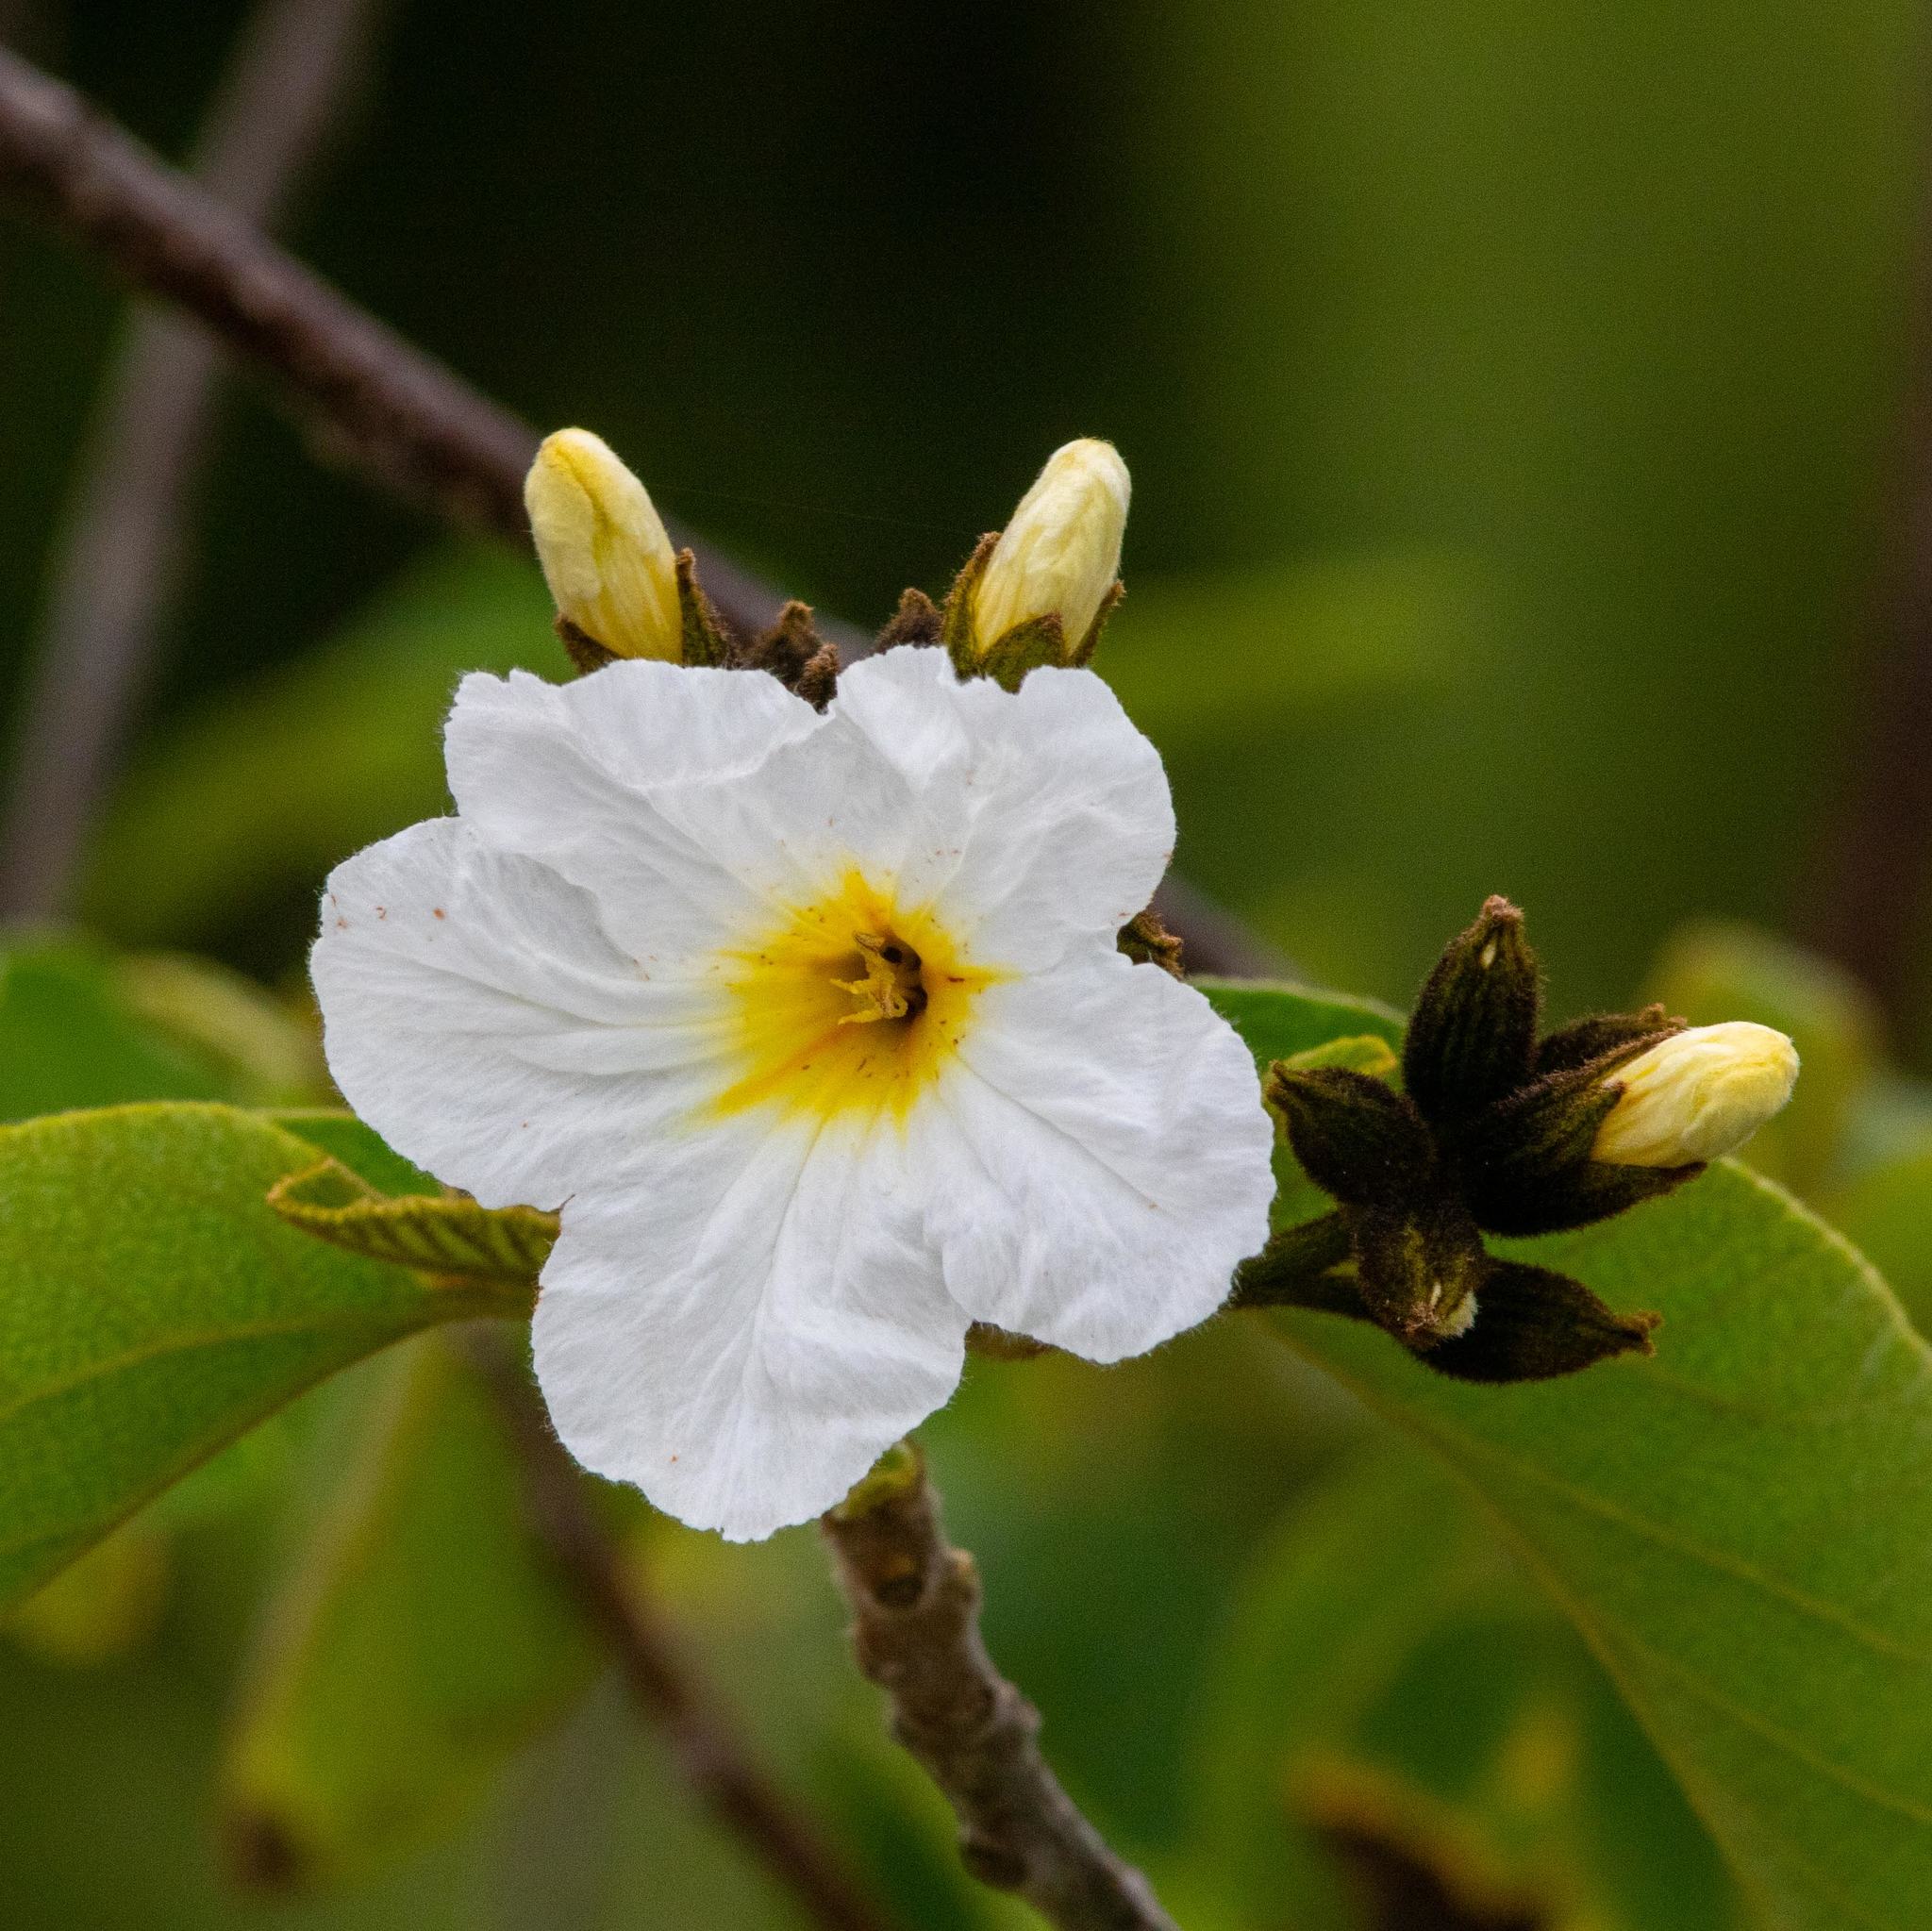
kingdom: Plantae
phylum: Tracheophyta
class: Magnoliopsida
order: Boraginales
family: Cordiaceae
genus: Cordia
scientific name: Cordia boissieri
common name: Mexican-olive
